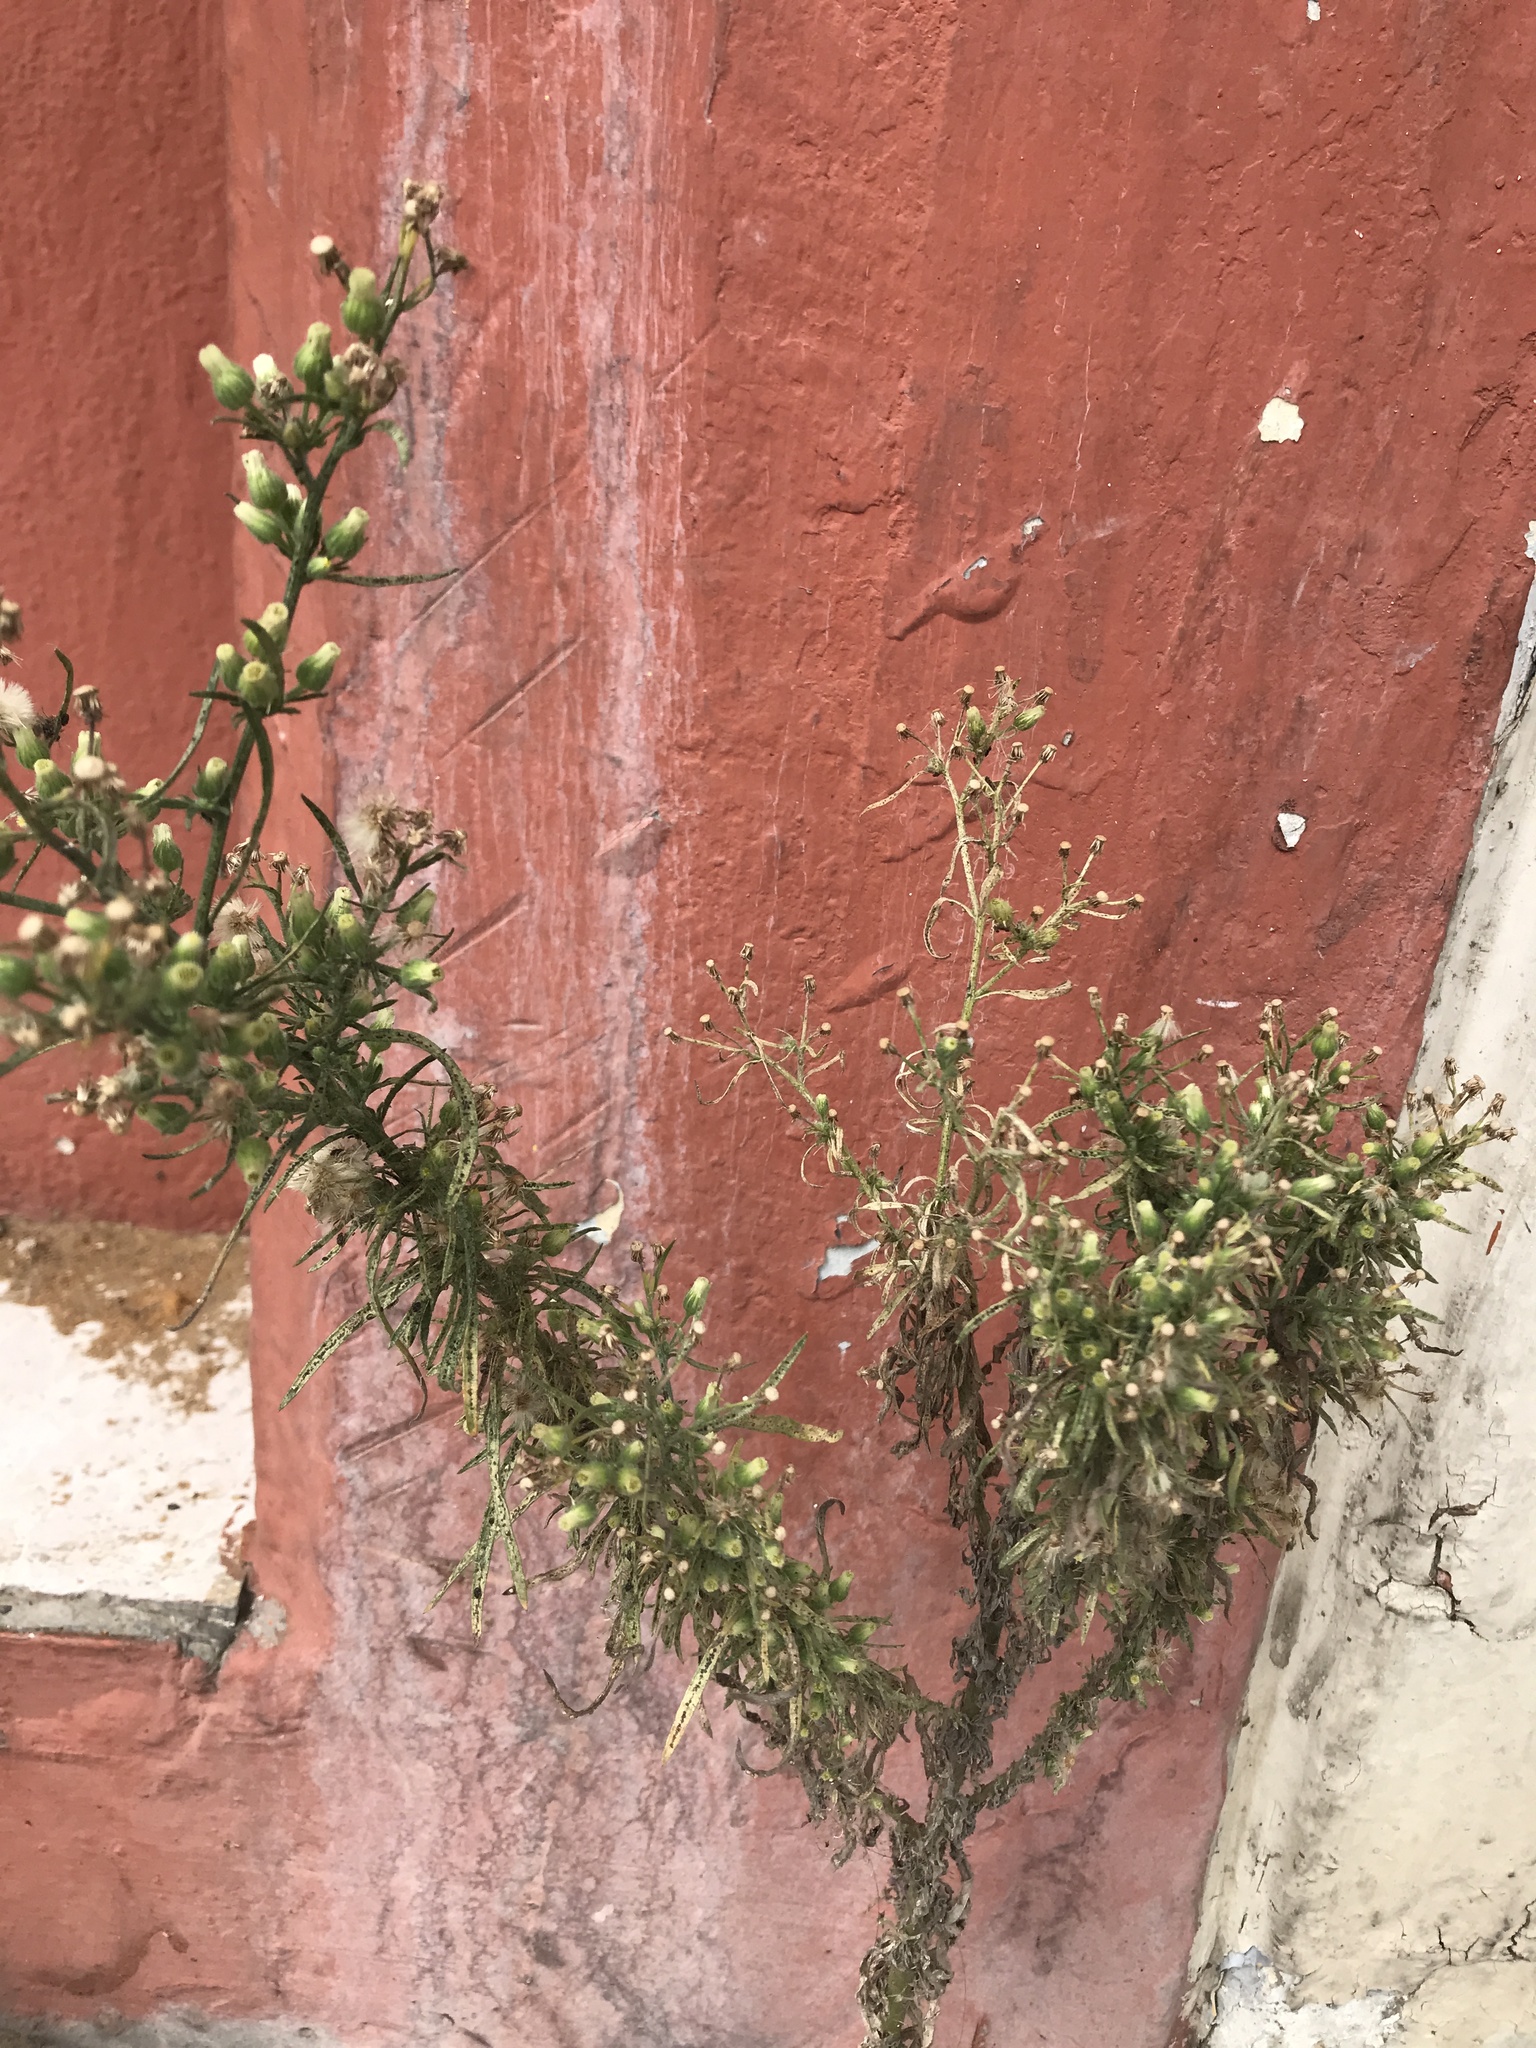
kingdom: Plantae
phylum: Tracheophyta
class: Magnoliopsida
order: Asterales
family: Asteraceae
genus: Erigeron
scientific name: Erigeron bonariensis
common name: Argentine fleabane
